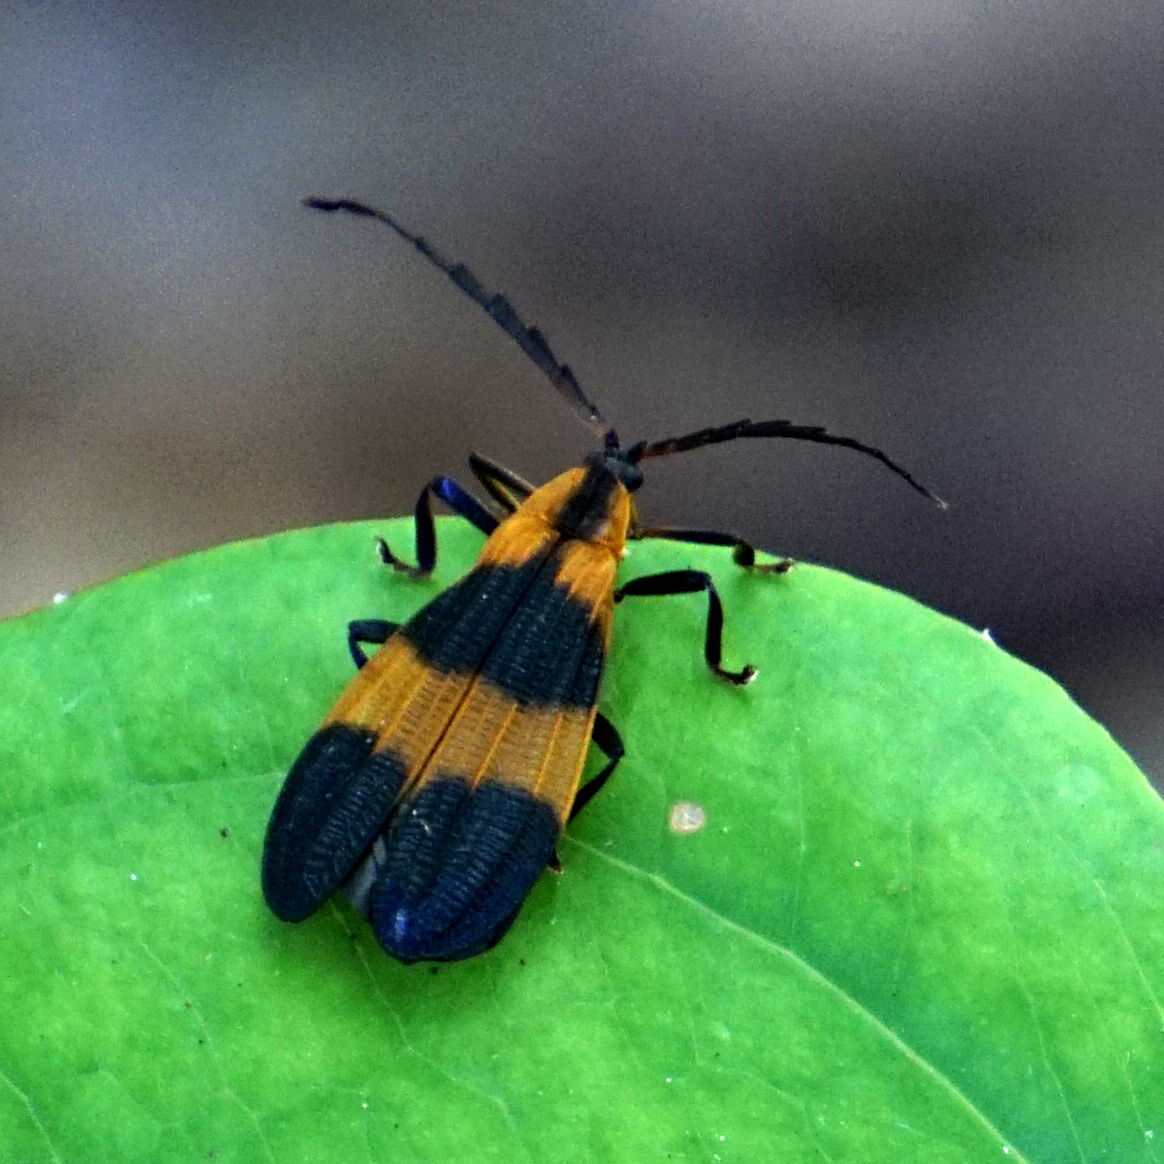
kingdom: Animalia
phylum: Arthropoda
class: Insecta
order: Coleoptera
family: Lycidae
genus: Calopteron
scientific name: Calopteron reticulatum
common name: Banded net-winged beetle
